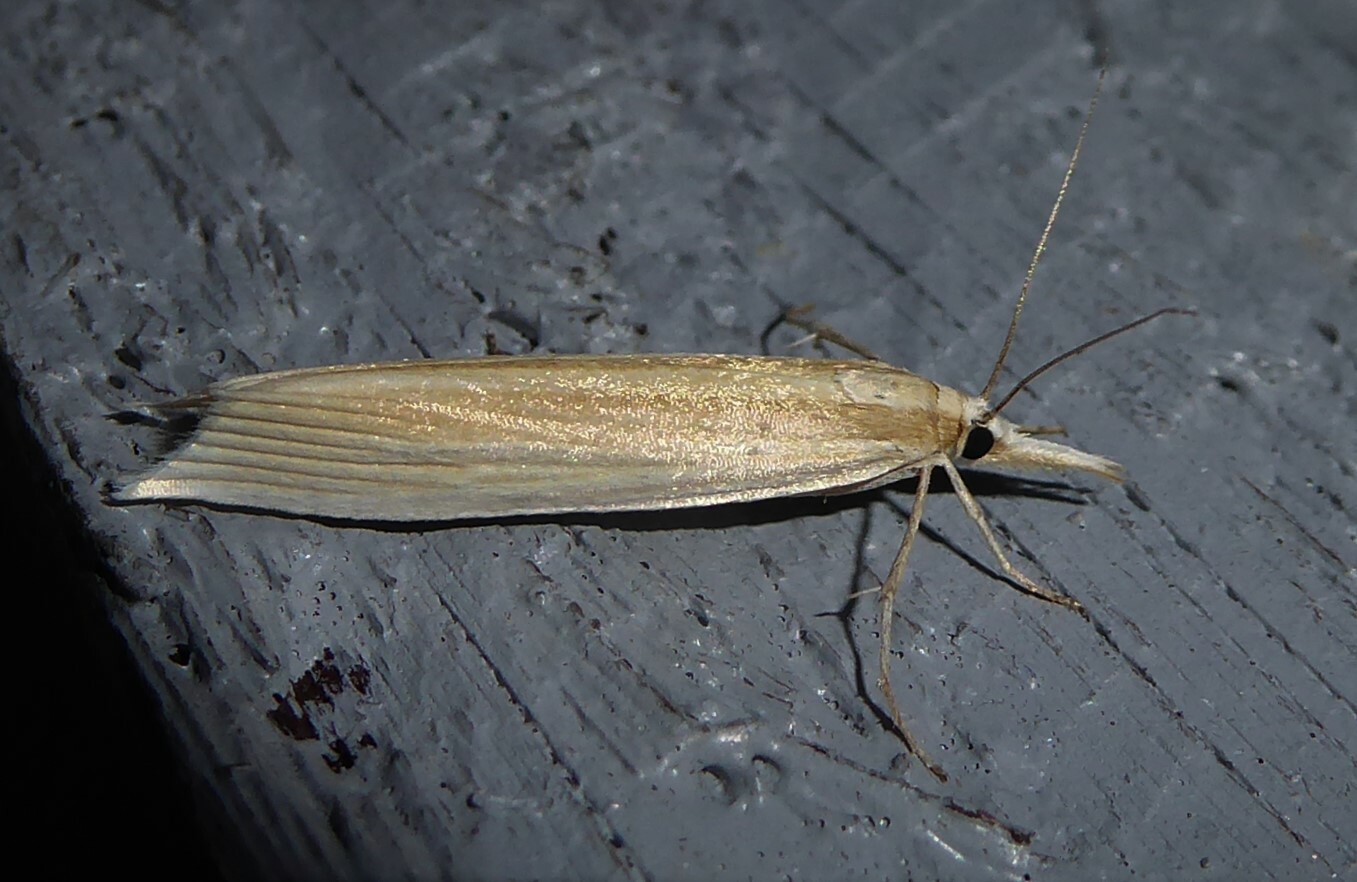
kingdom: Animalia
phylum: Arthropoda
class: Insecta
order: Lepidoptera
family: Crambidae
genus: Orocrambus
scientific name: Orocrambus angustipennis
